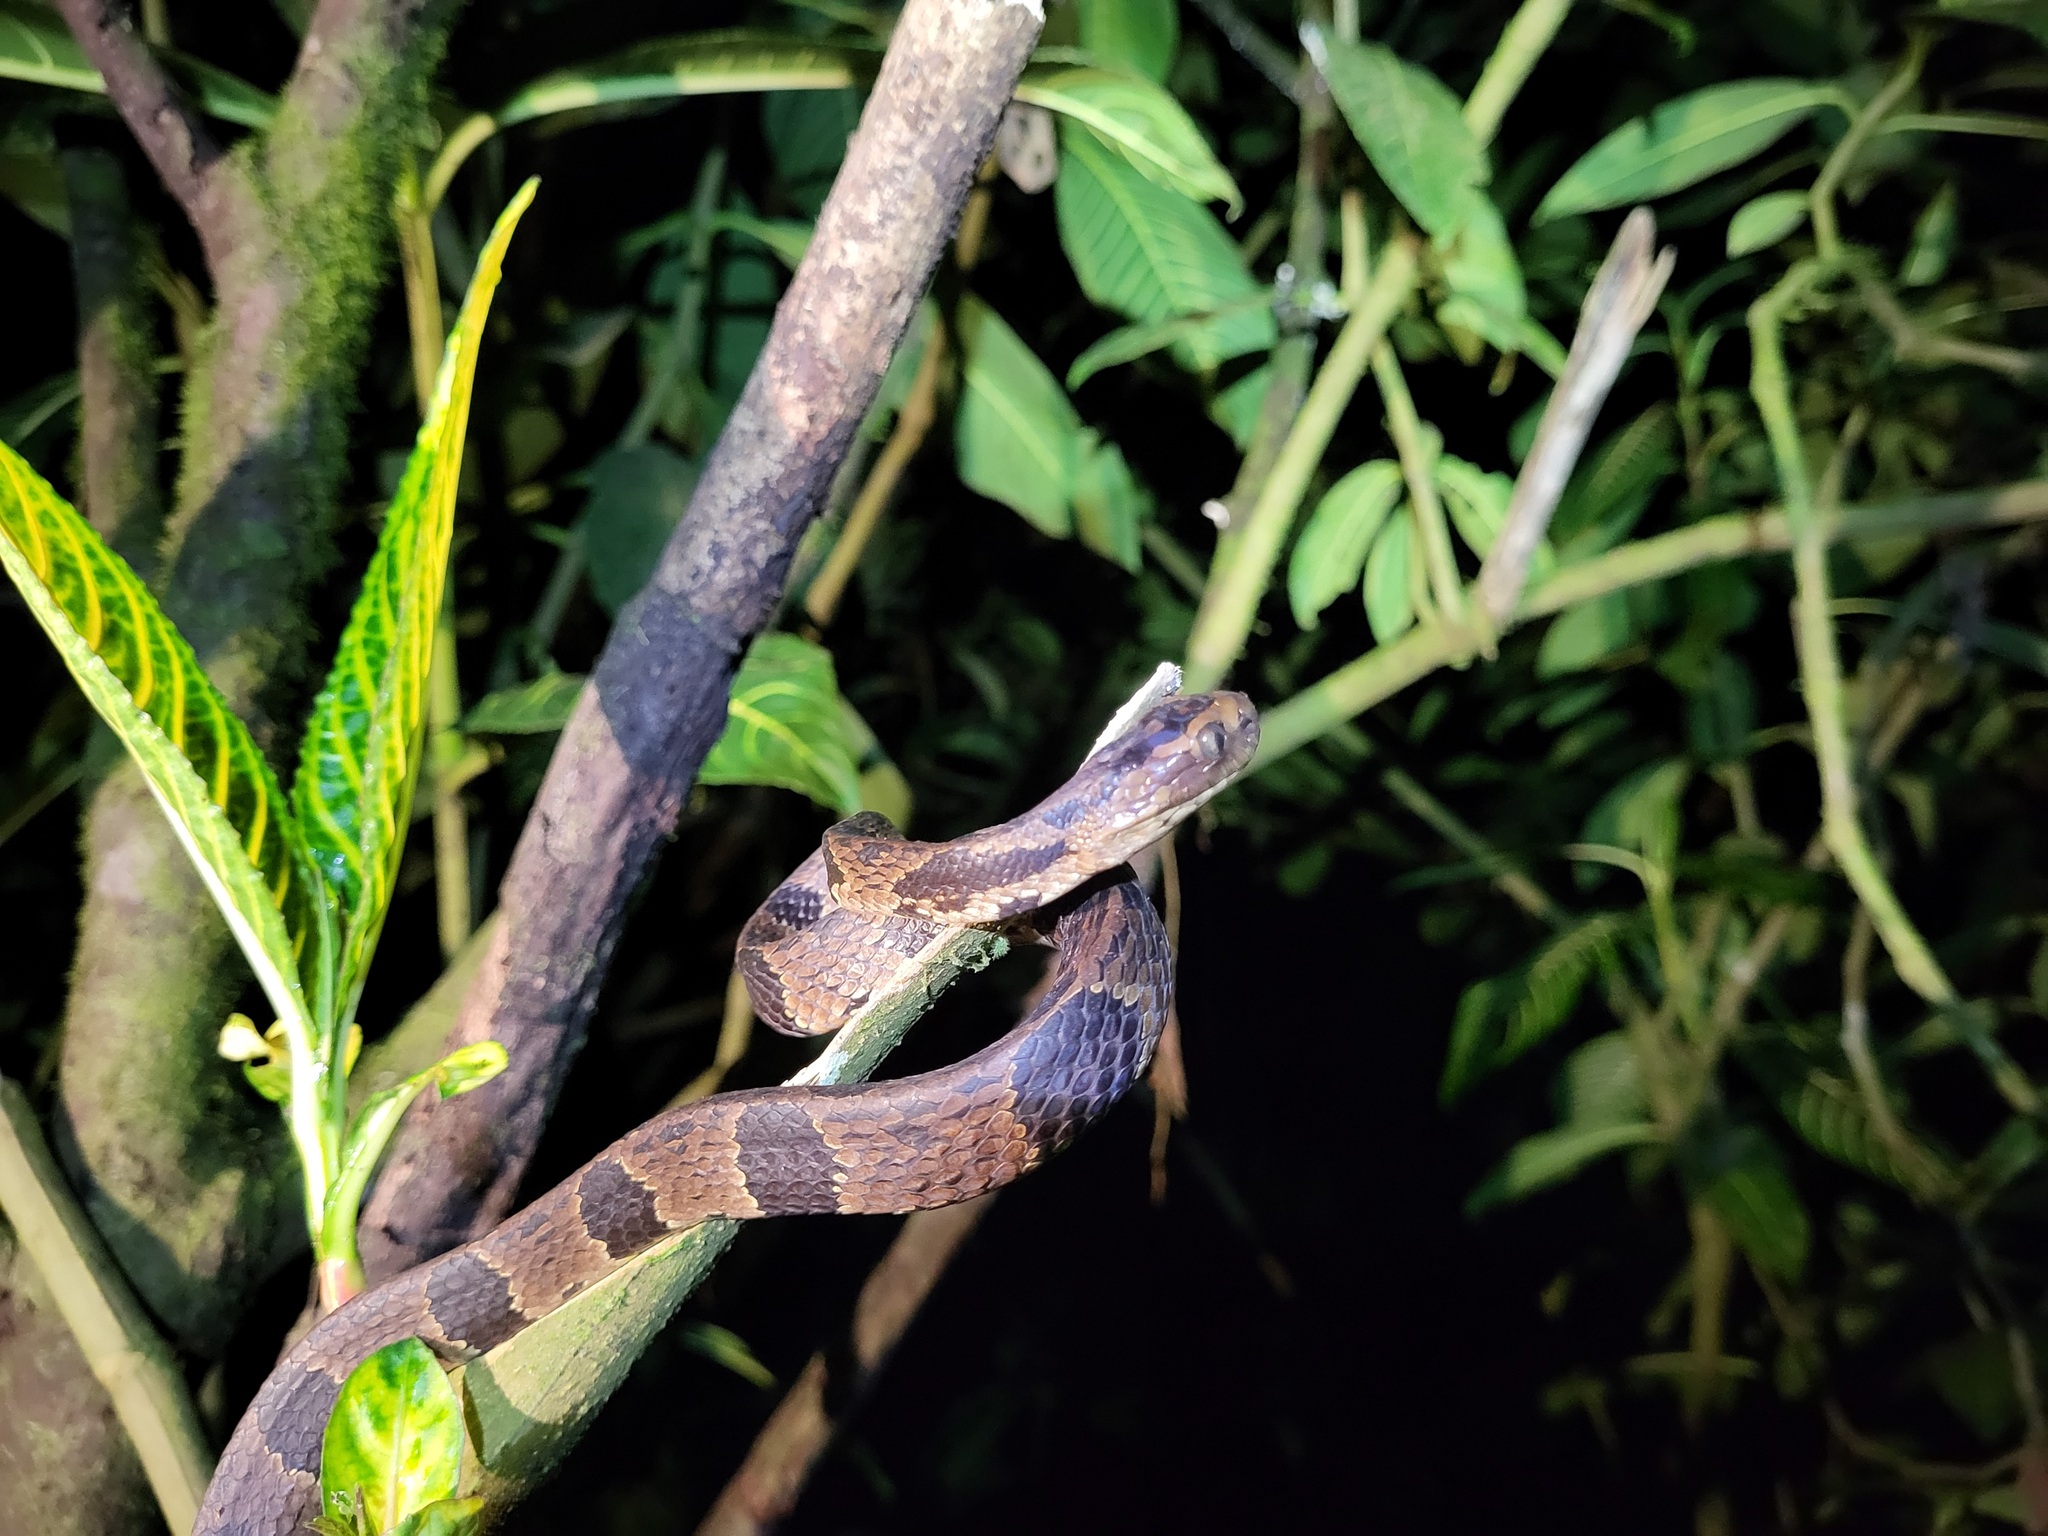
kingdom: Animalia
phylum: Chordata
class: Squamata
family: Colubridae
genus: Dipsas
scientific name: Dipsas andiana
